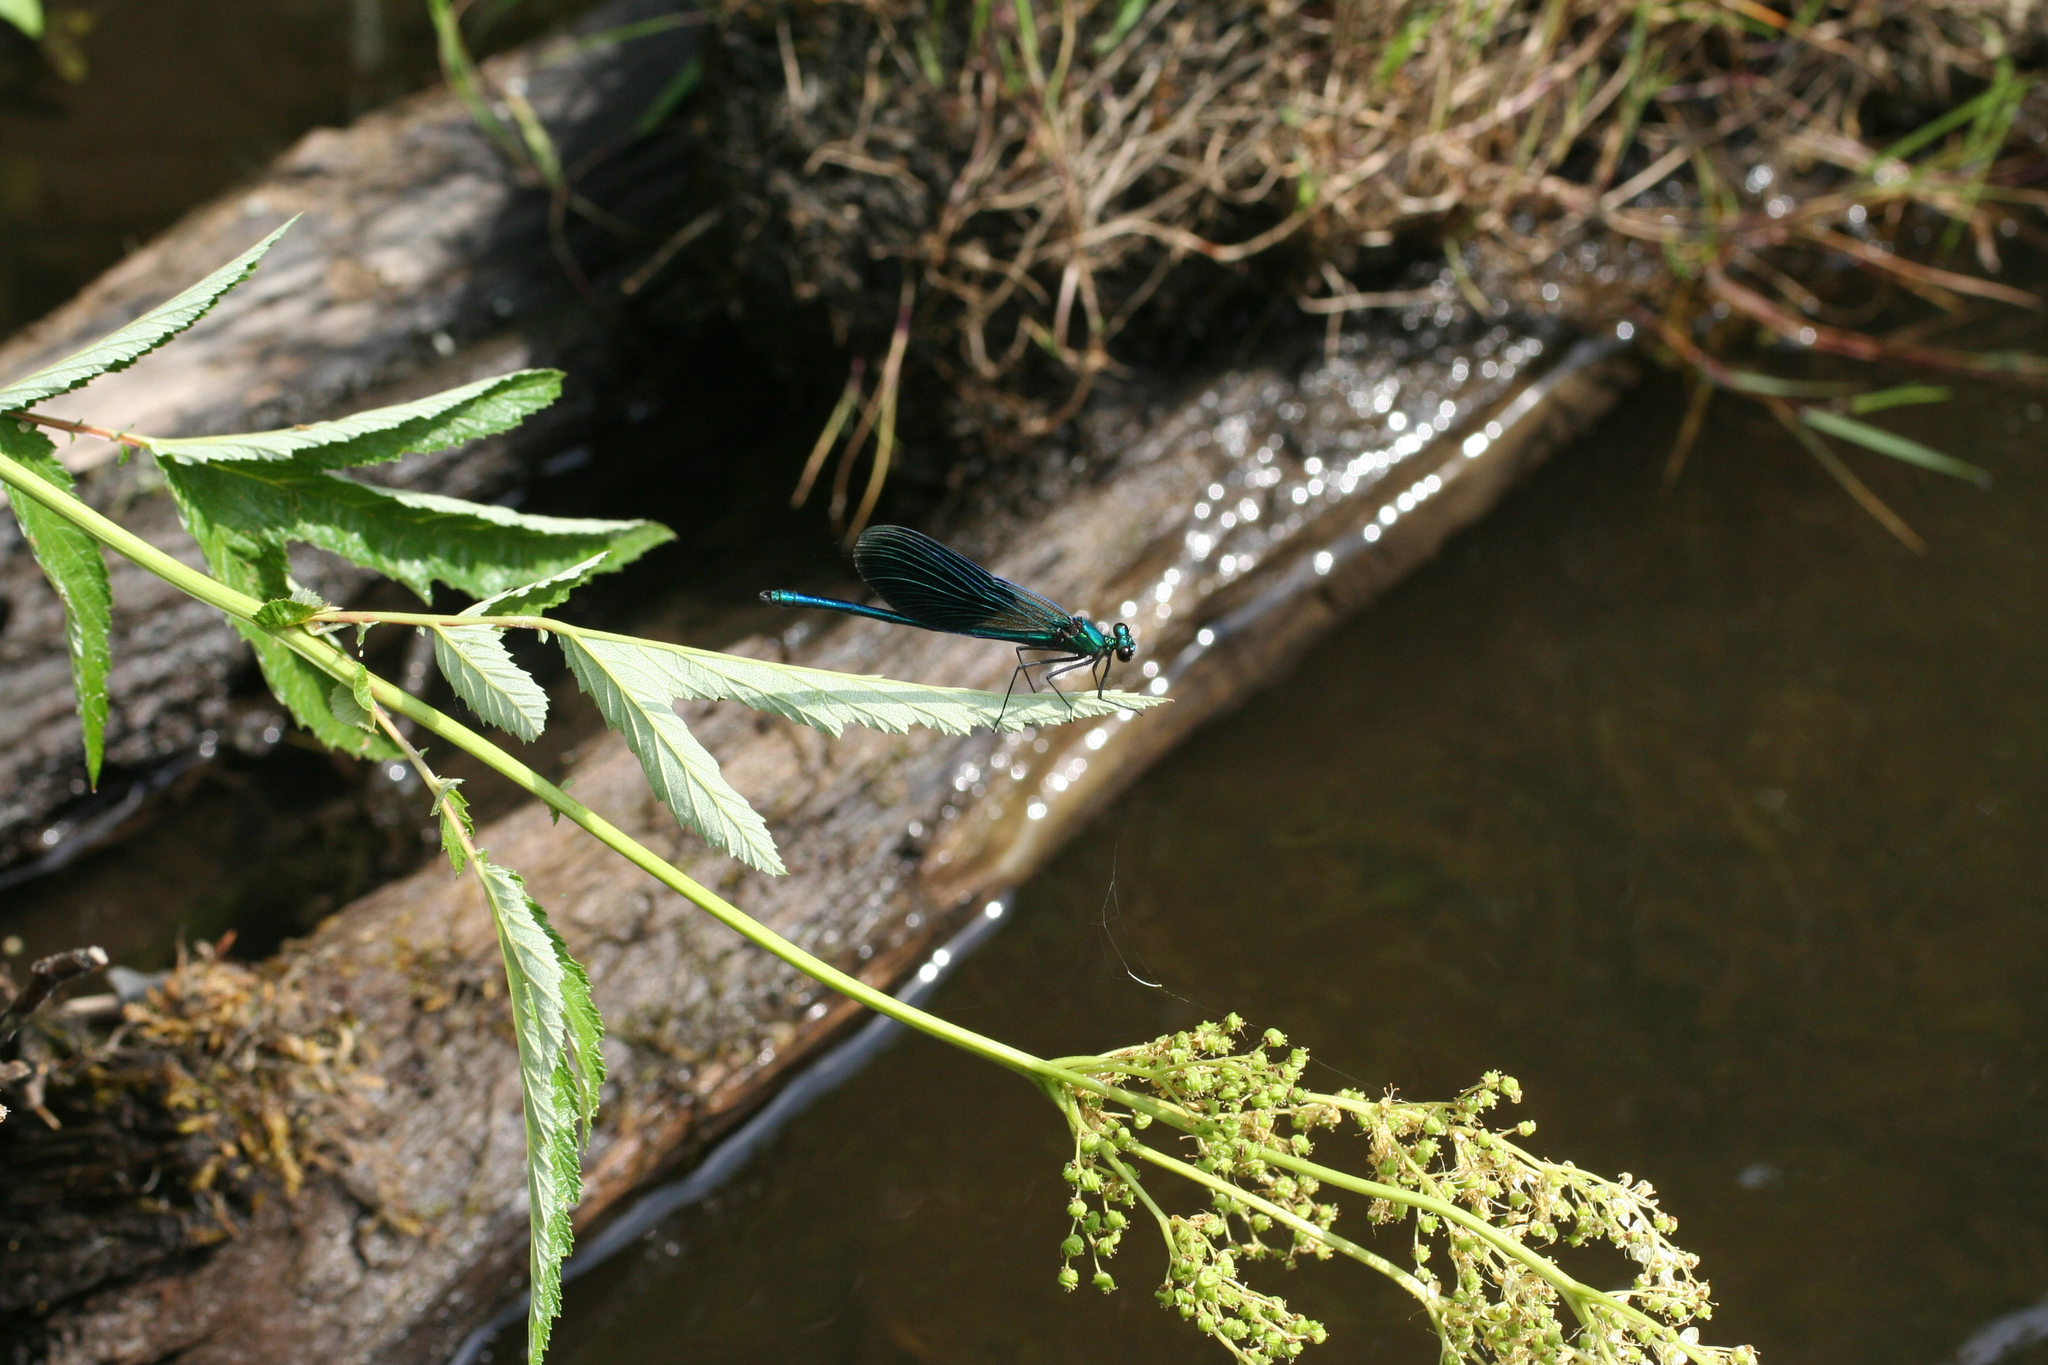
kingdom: Animalia
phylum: Arthropoda
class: Insecta
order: Odonata
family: Calopterygidae
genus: Calopteryx
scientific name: Calopteryx splendens
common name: Banded demoiselle
